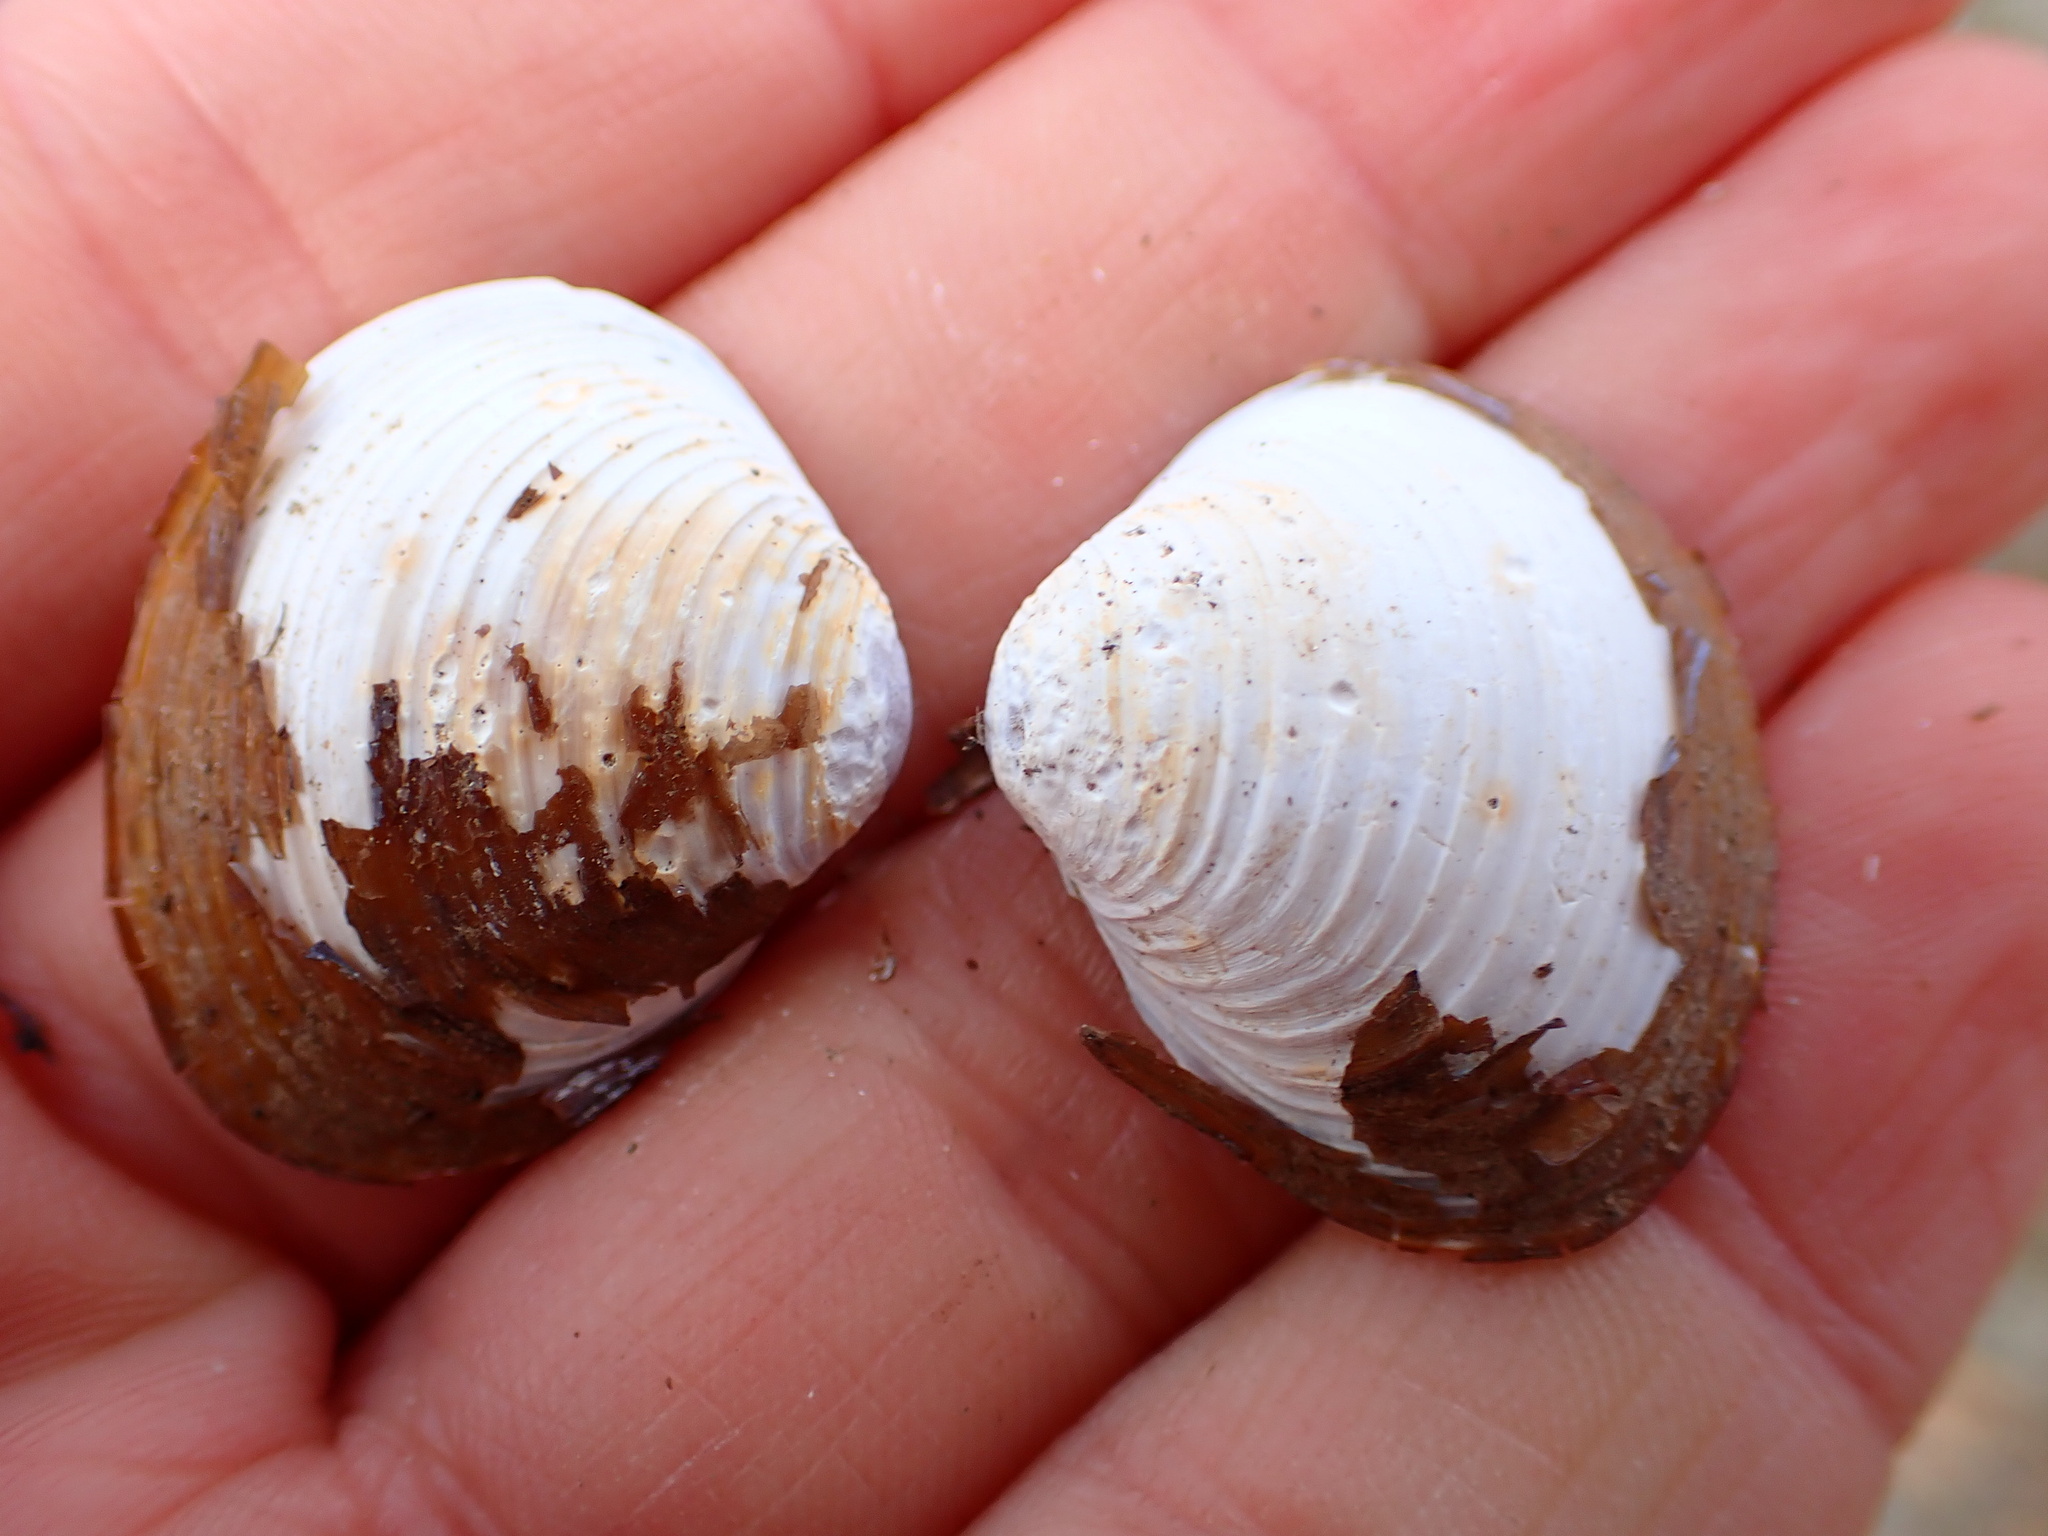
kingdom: Animalia
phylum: Mollusca
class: Bivalvia
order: Venerida
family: Cyrenidae
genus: Corbicula
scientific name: Corbicula fluminea
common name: Asian clam
